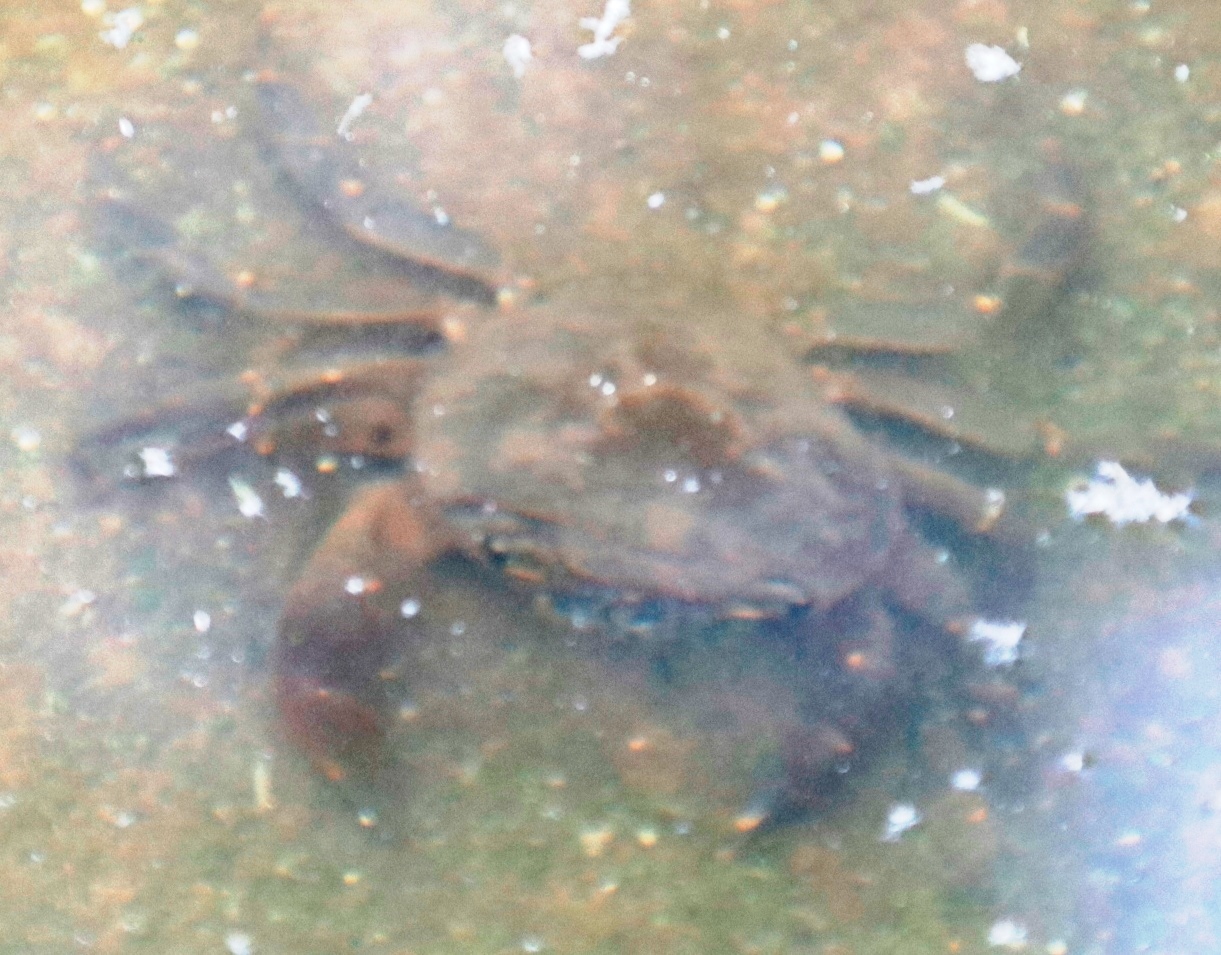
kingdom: Animalia
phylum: Arthropoda
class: Malacostraca
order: Decapoda
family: Potamonautidae
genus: Potamonautes
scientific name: Potamonautes perlatus
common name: Cape river crab
